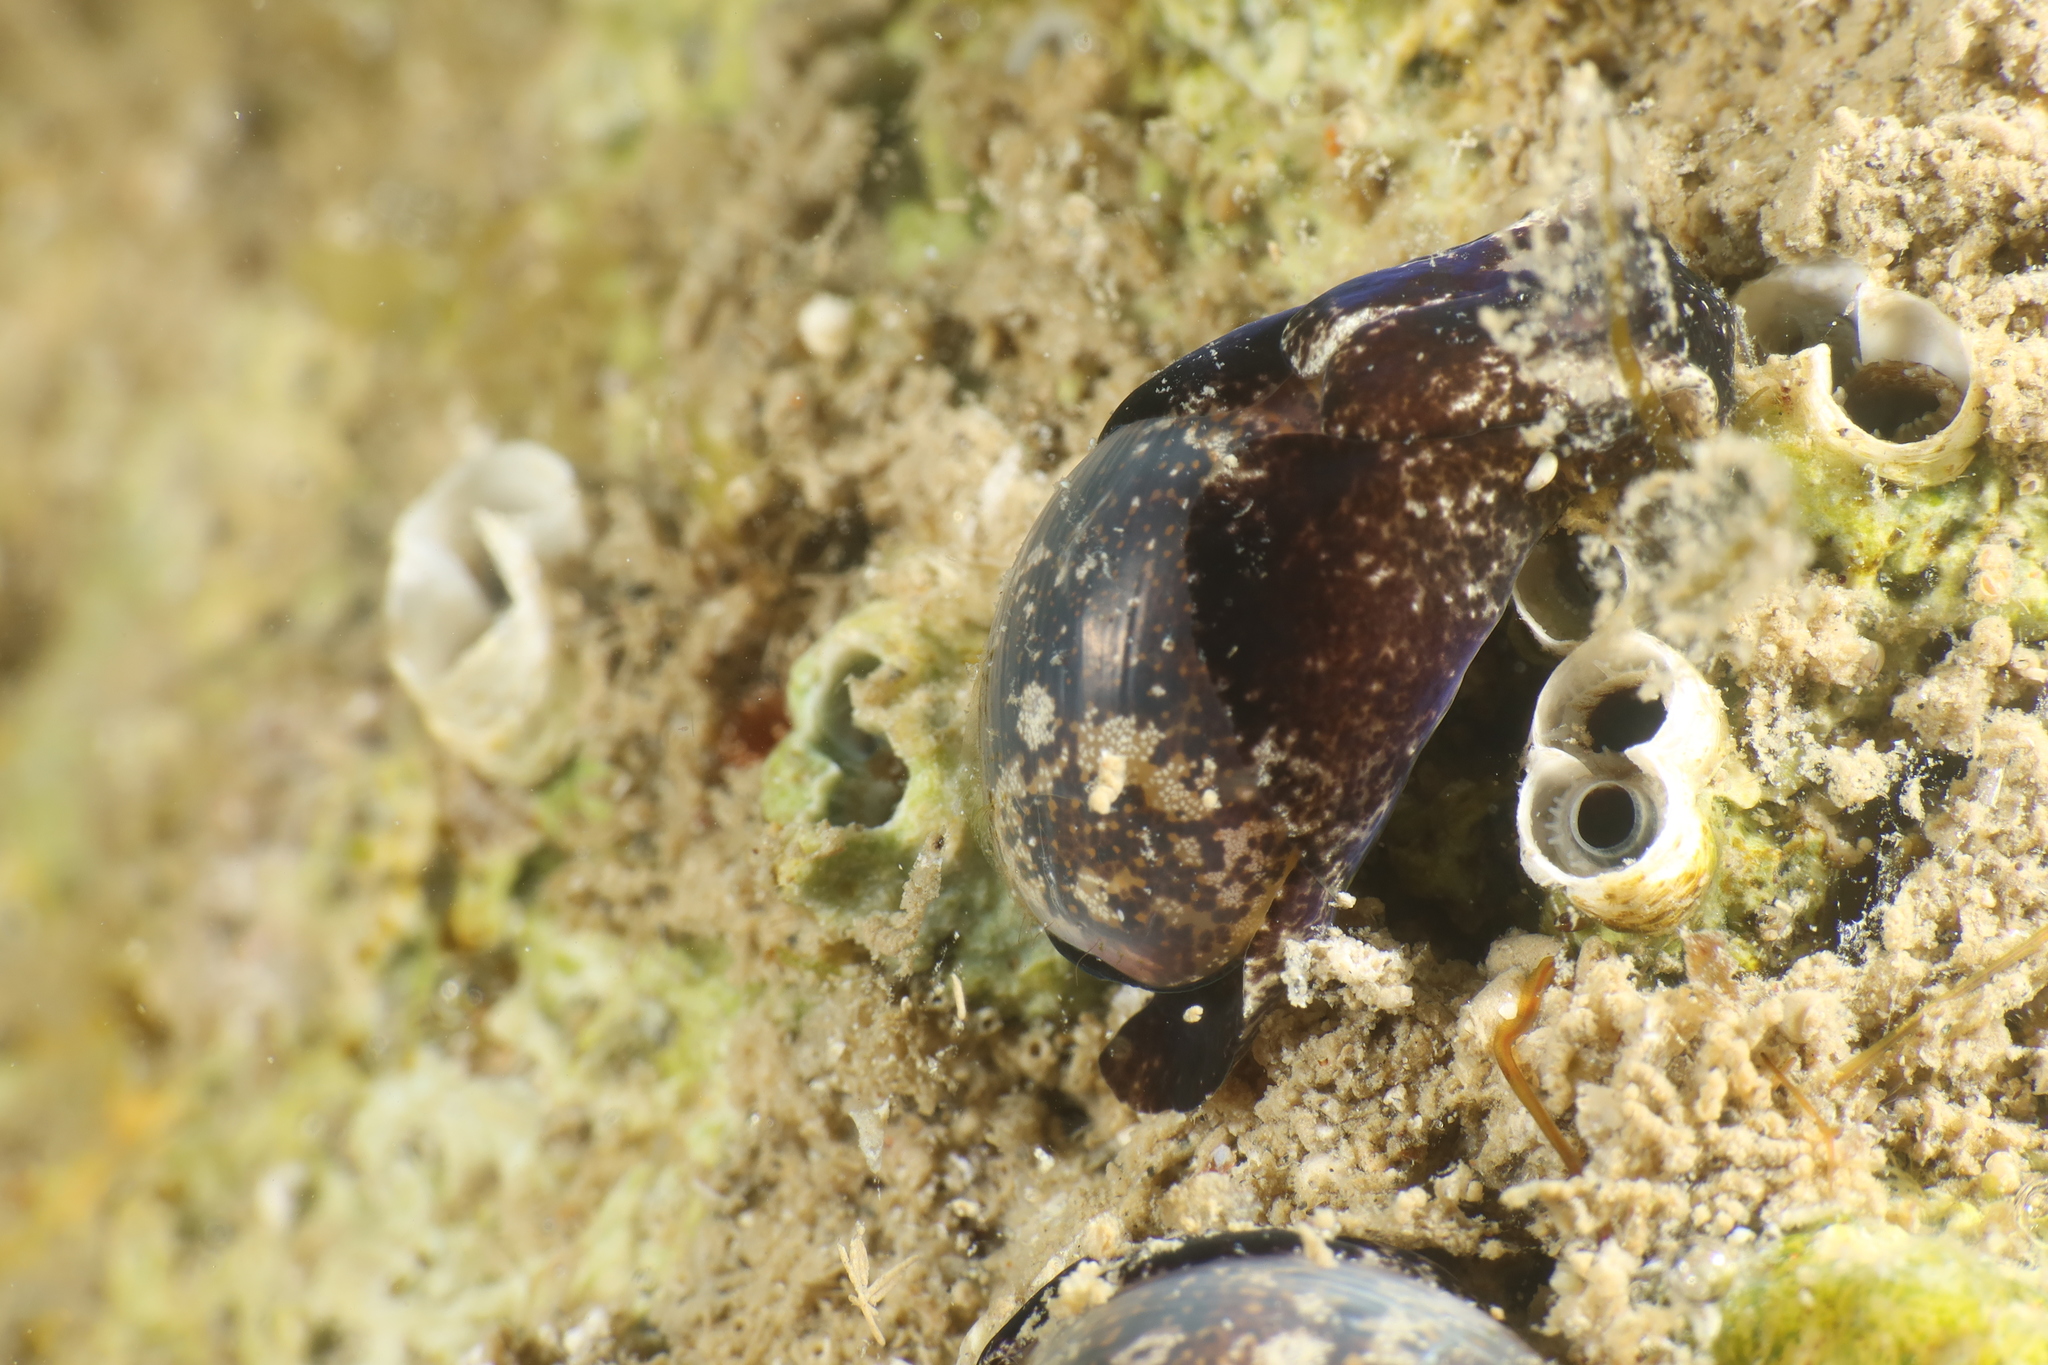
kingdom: Animalia
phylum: Mollusca
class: Gastropoda
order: Cephalaspidea
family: Haminoeidae
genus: Haminoea
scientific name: Haminoea exigua
